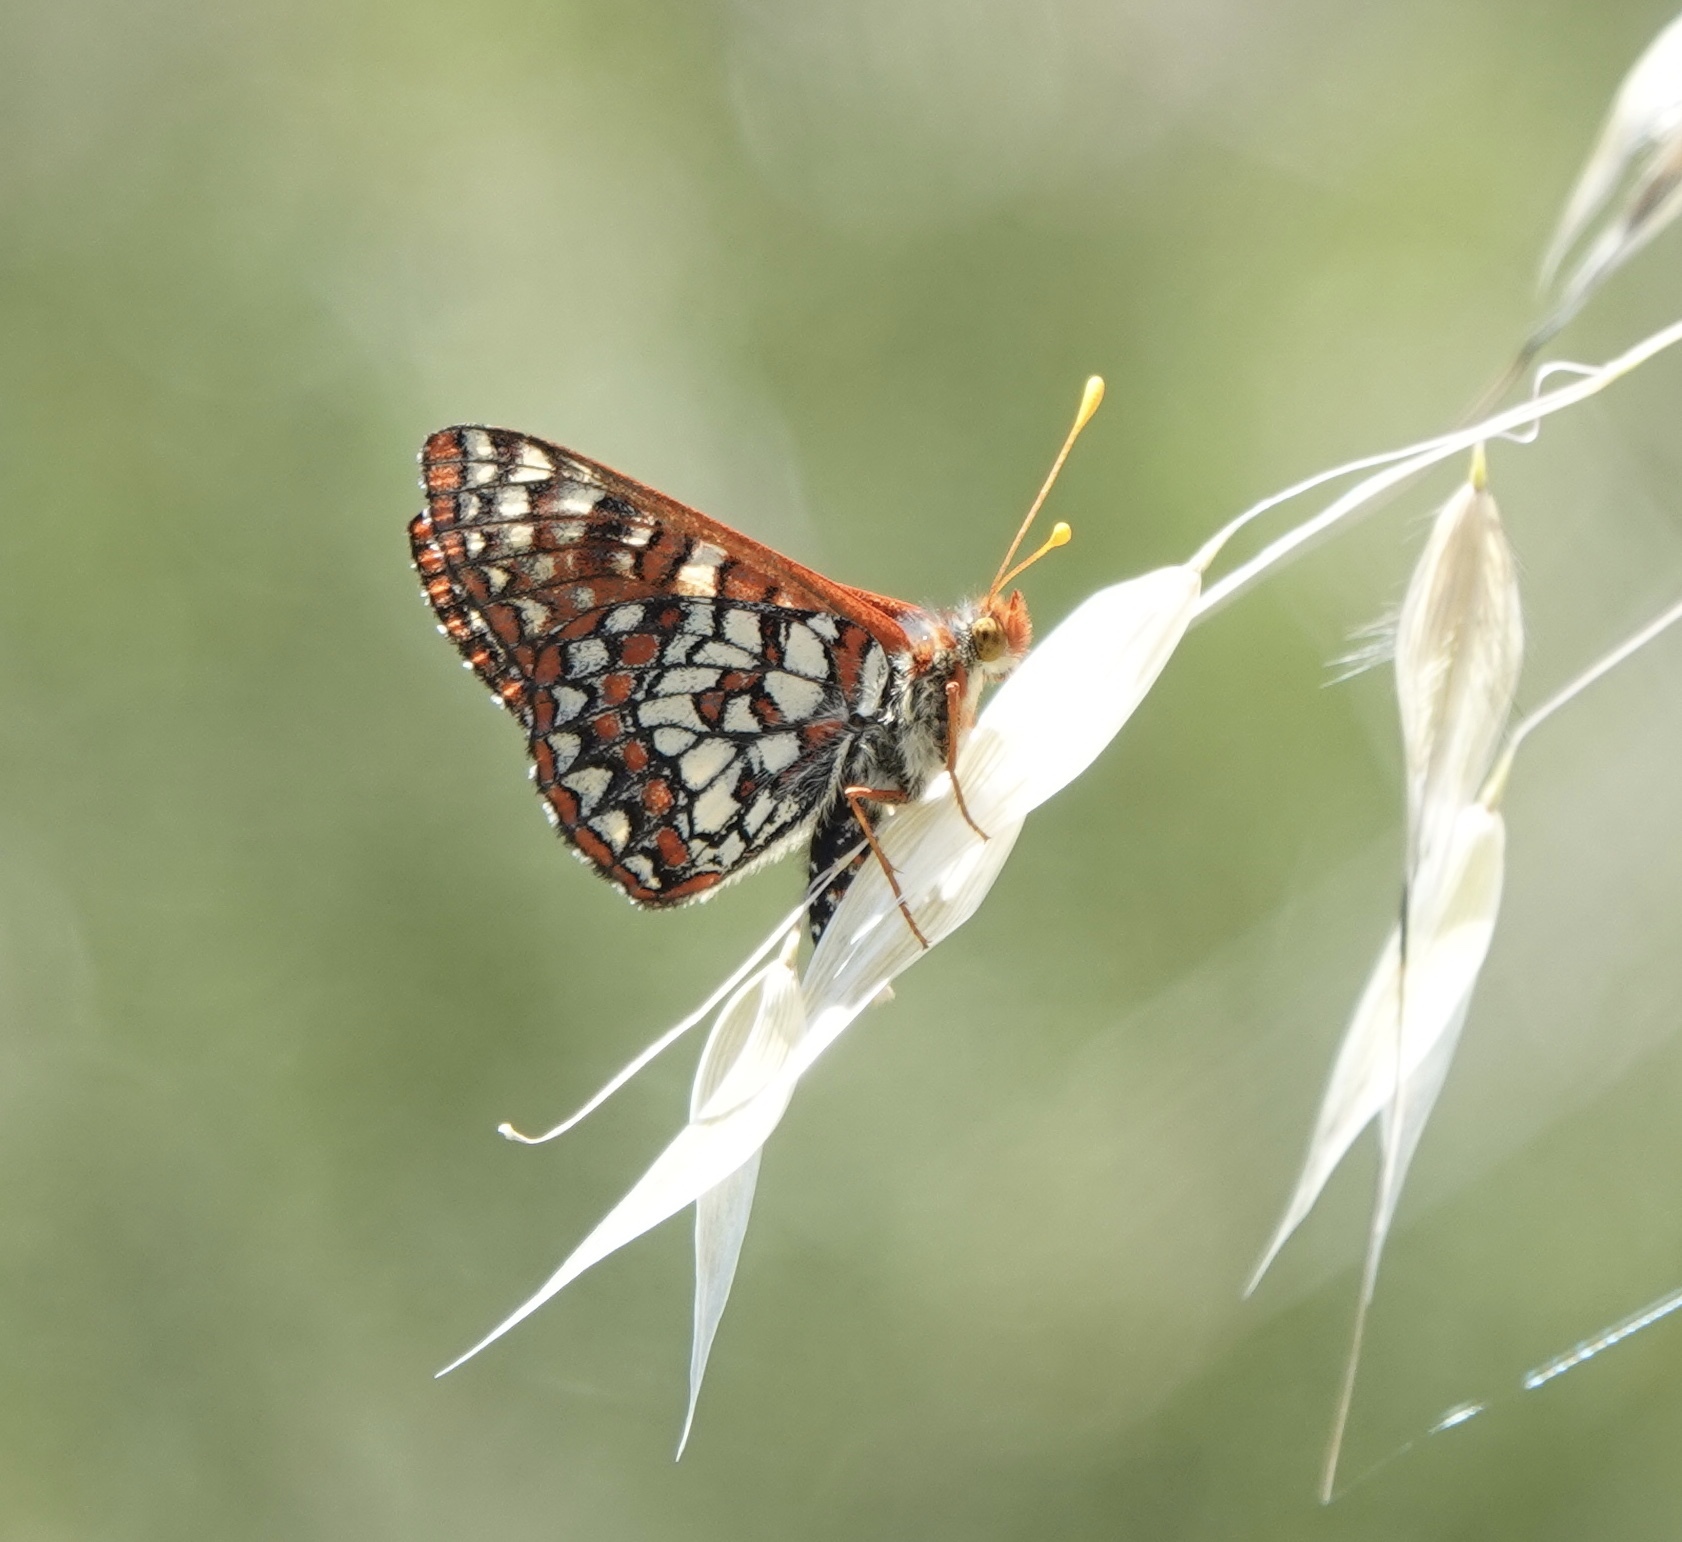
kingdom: Animalia
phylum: Arthropoda
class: Insecta
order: Lepidoptera
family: Nymphalidae
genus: Occidryas
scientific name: Occidryas chalcedona
